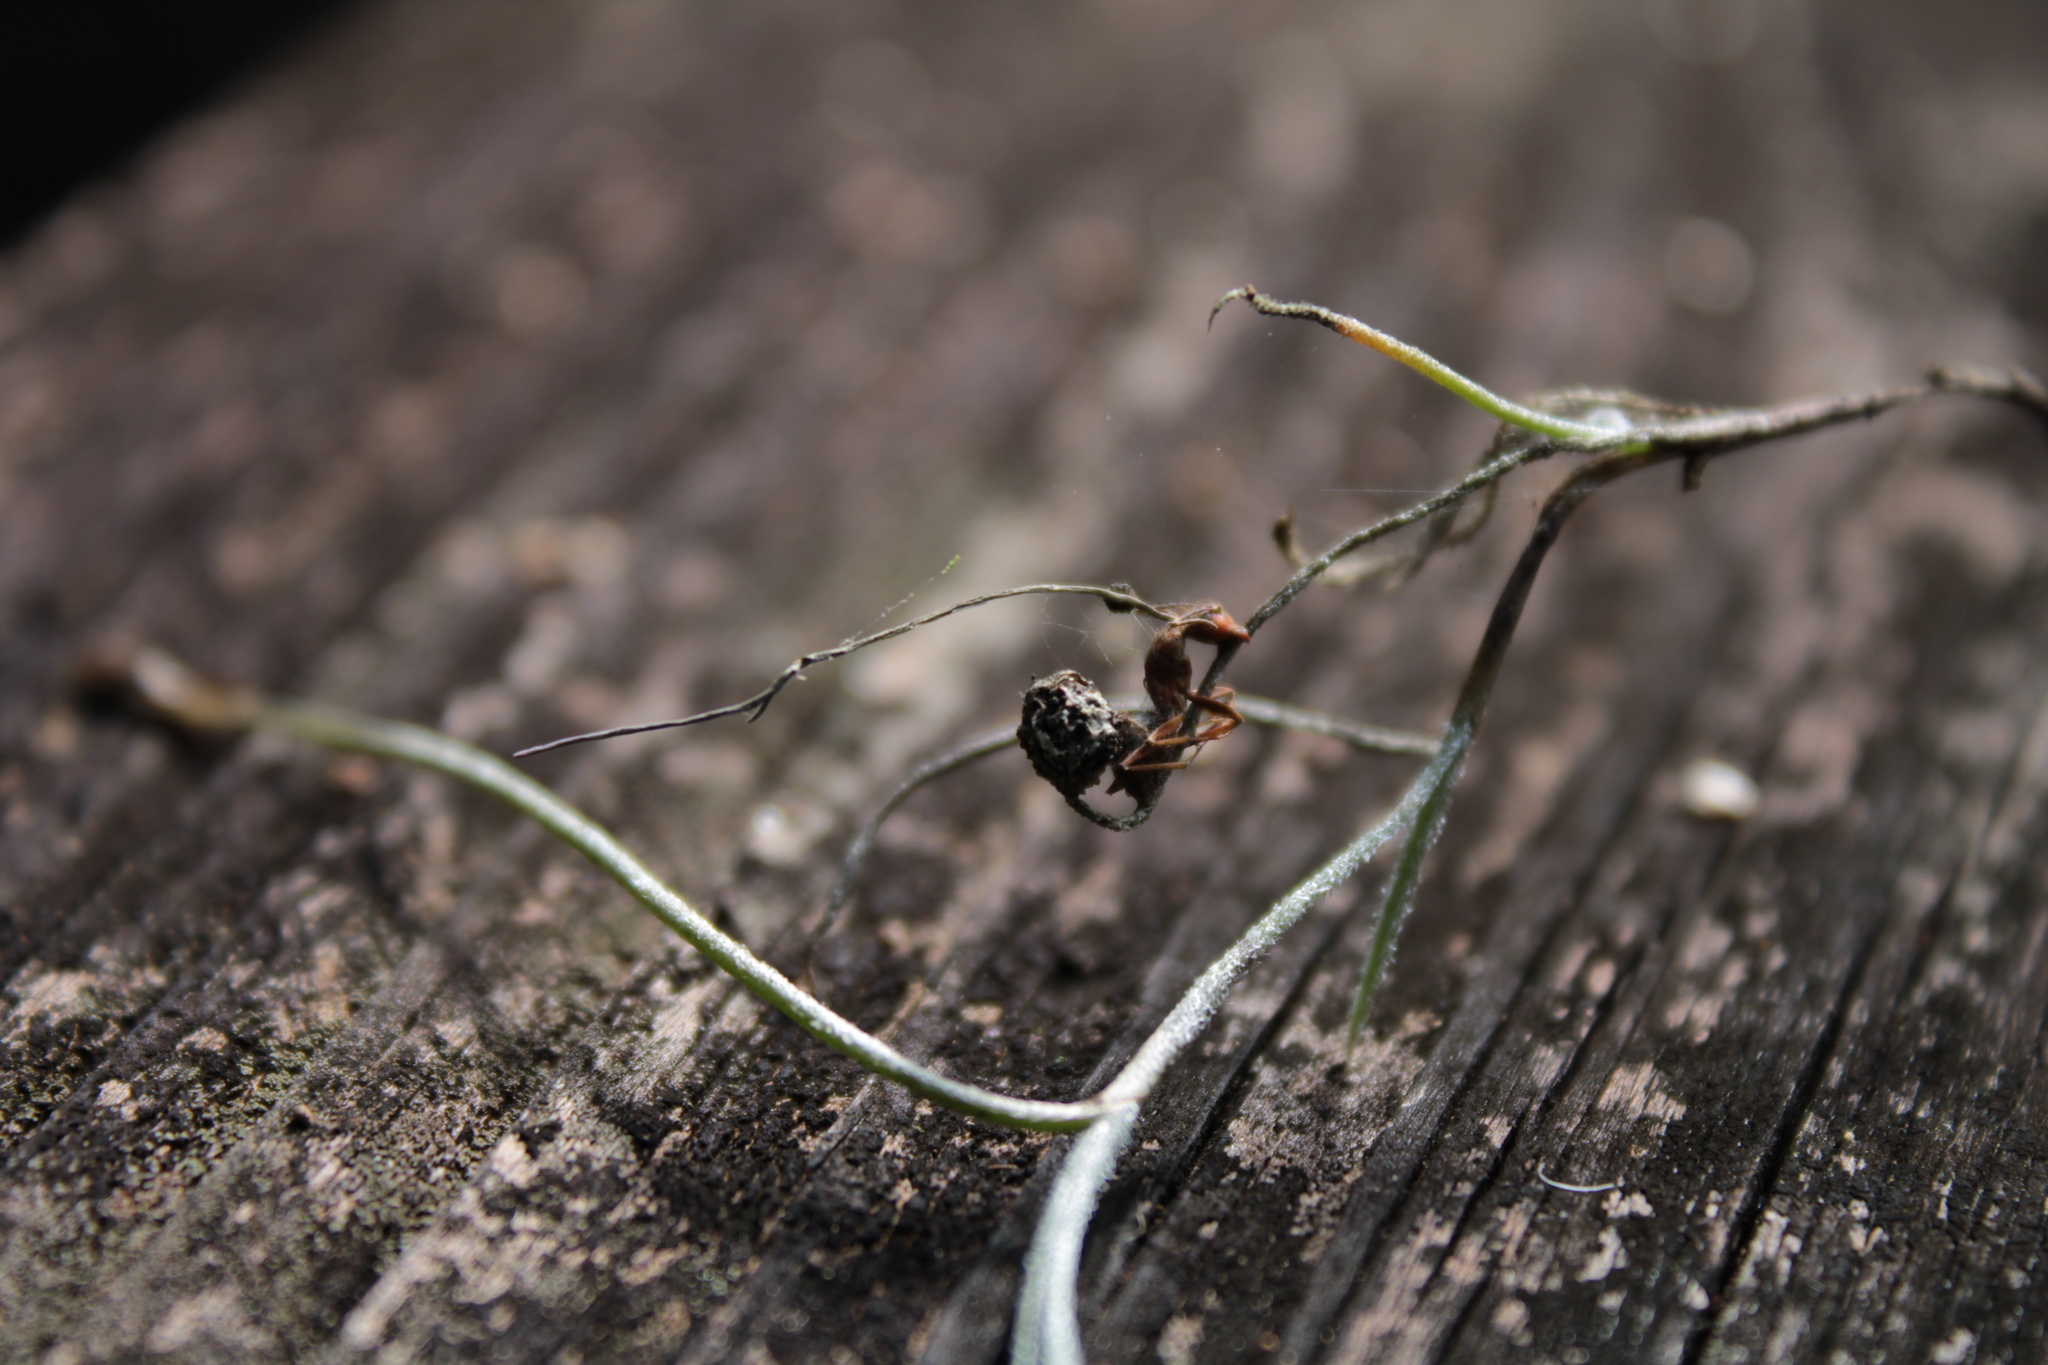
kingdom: Fungi
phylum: Ascomycota
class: Sordariomycetes
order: Hypocreales
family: Ophiocordycipitaceae
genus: Ophiocordyceps
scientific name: Ophiocordyceps camponoti-floridani
